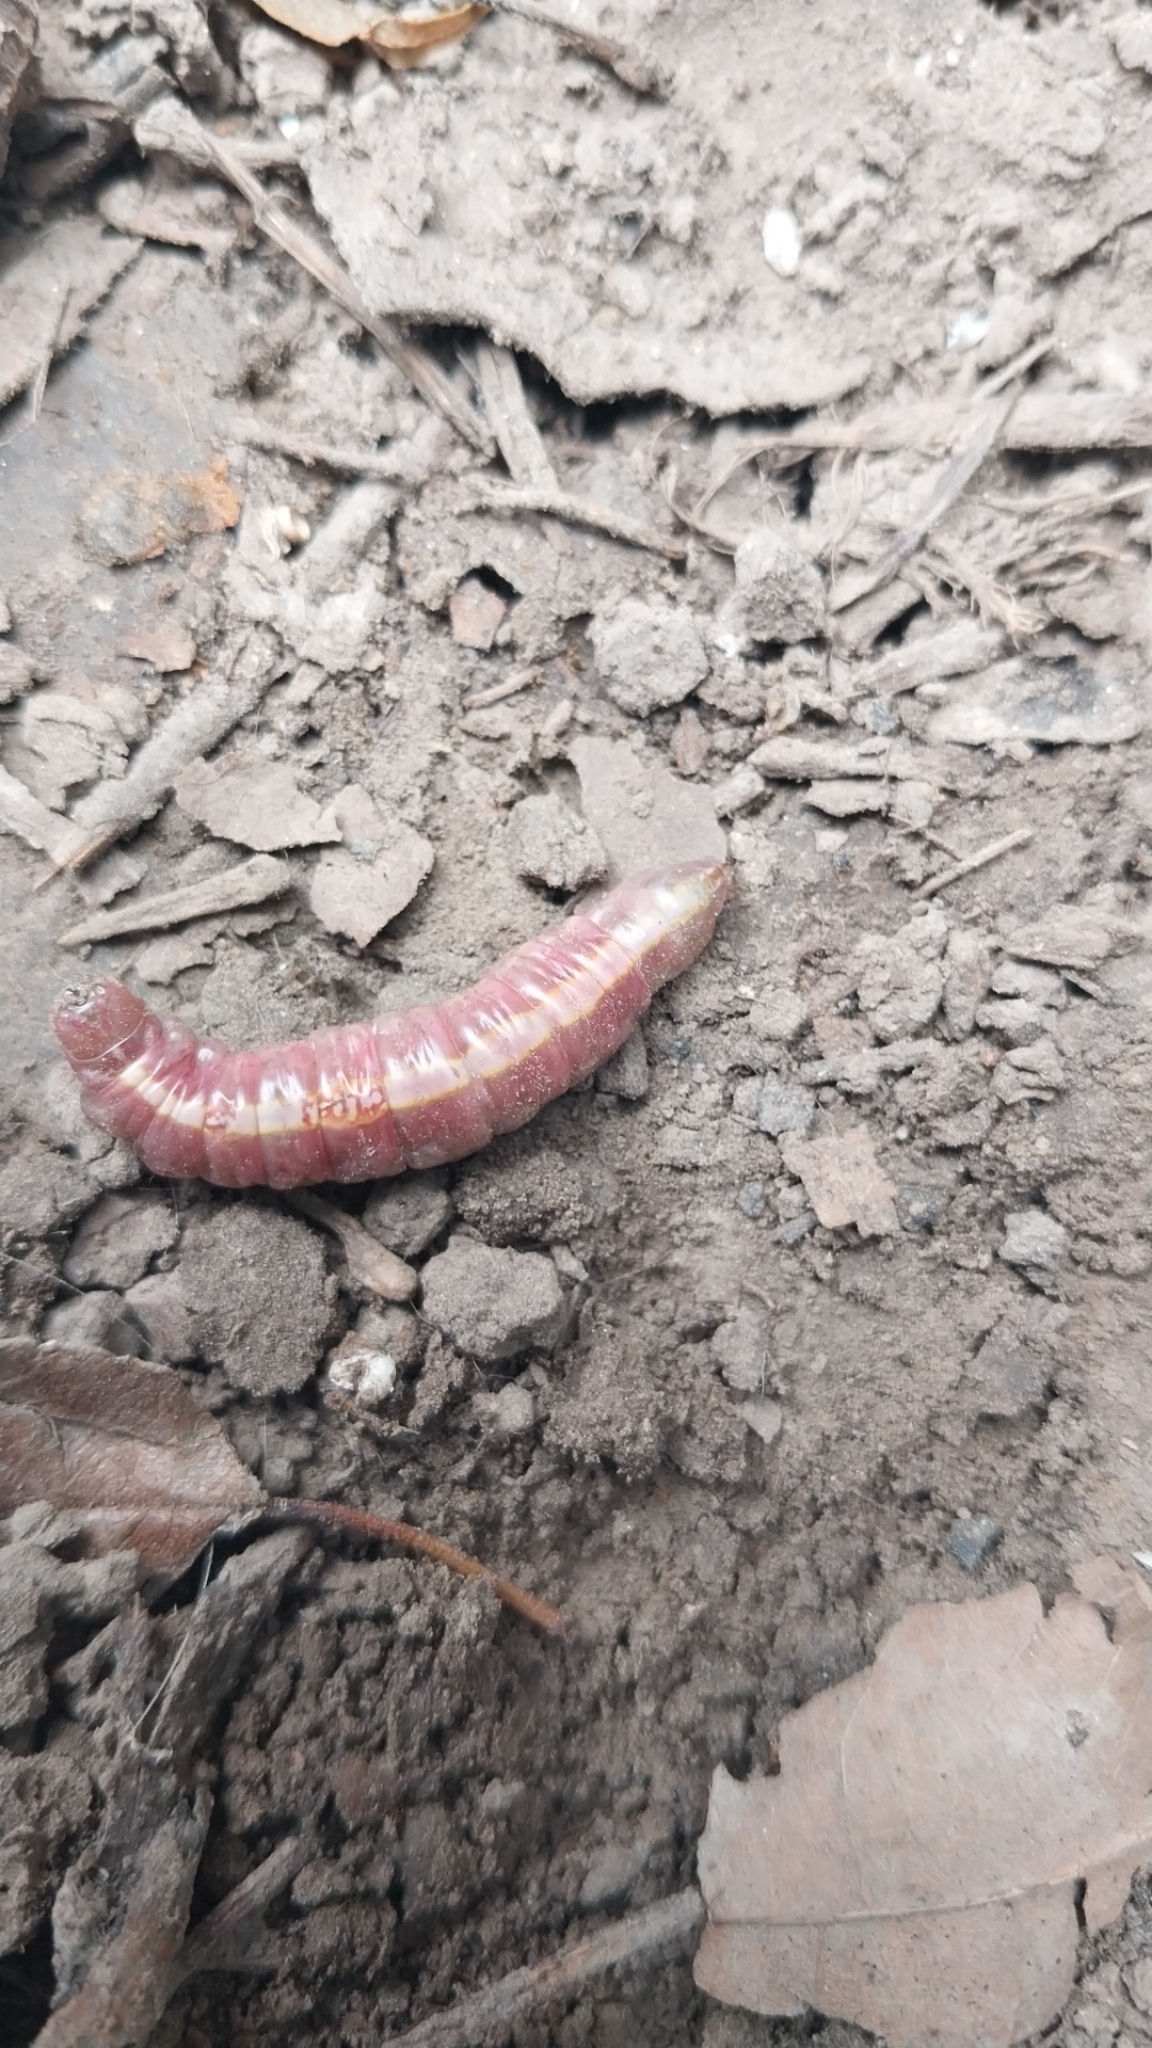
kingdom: Animalia
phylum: Arthropoda
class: Insecta
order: Lepidoptera
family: Notodontidae
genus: Misogada
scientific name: Misogada unicolor
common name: Drab prominent
